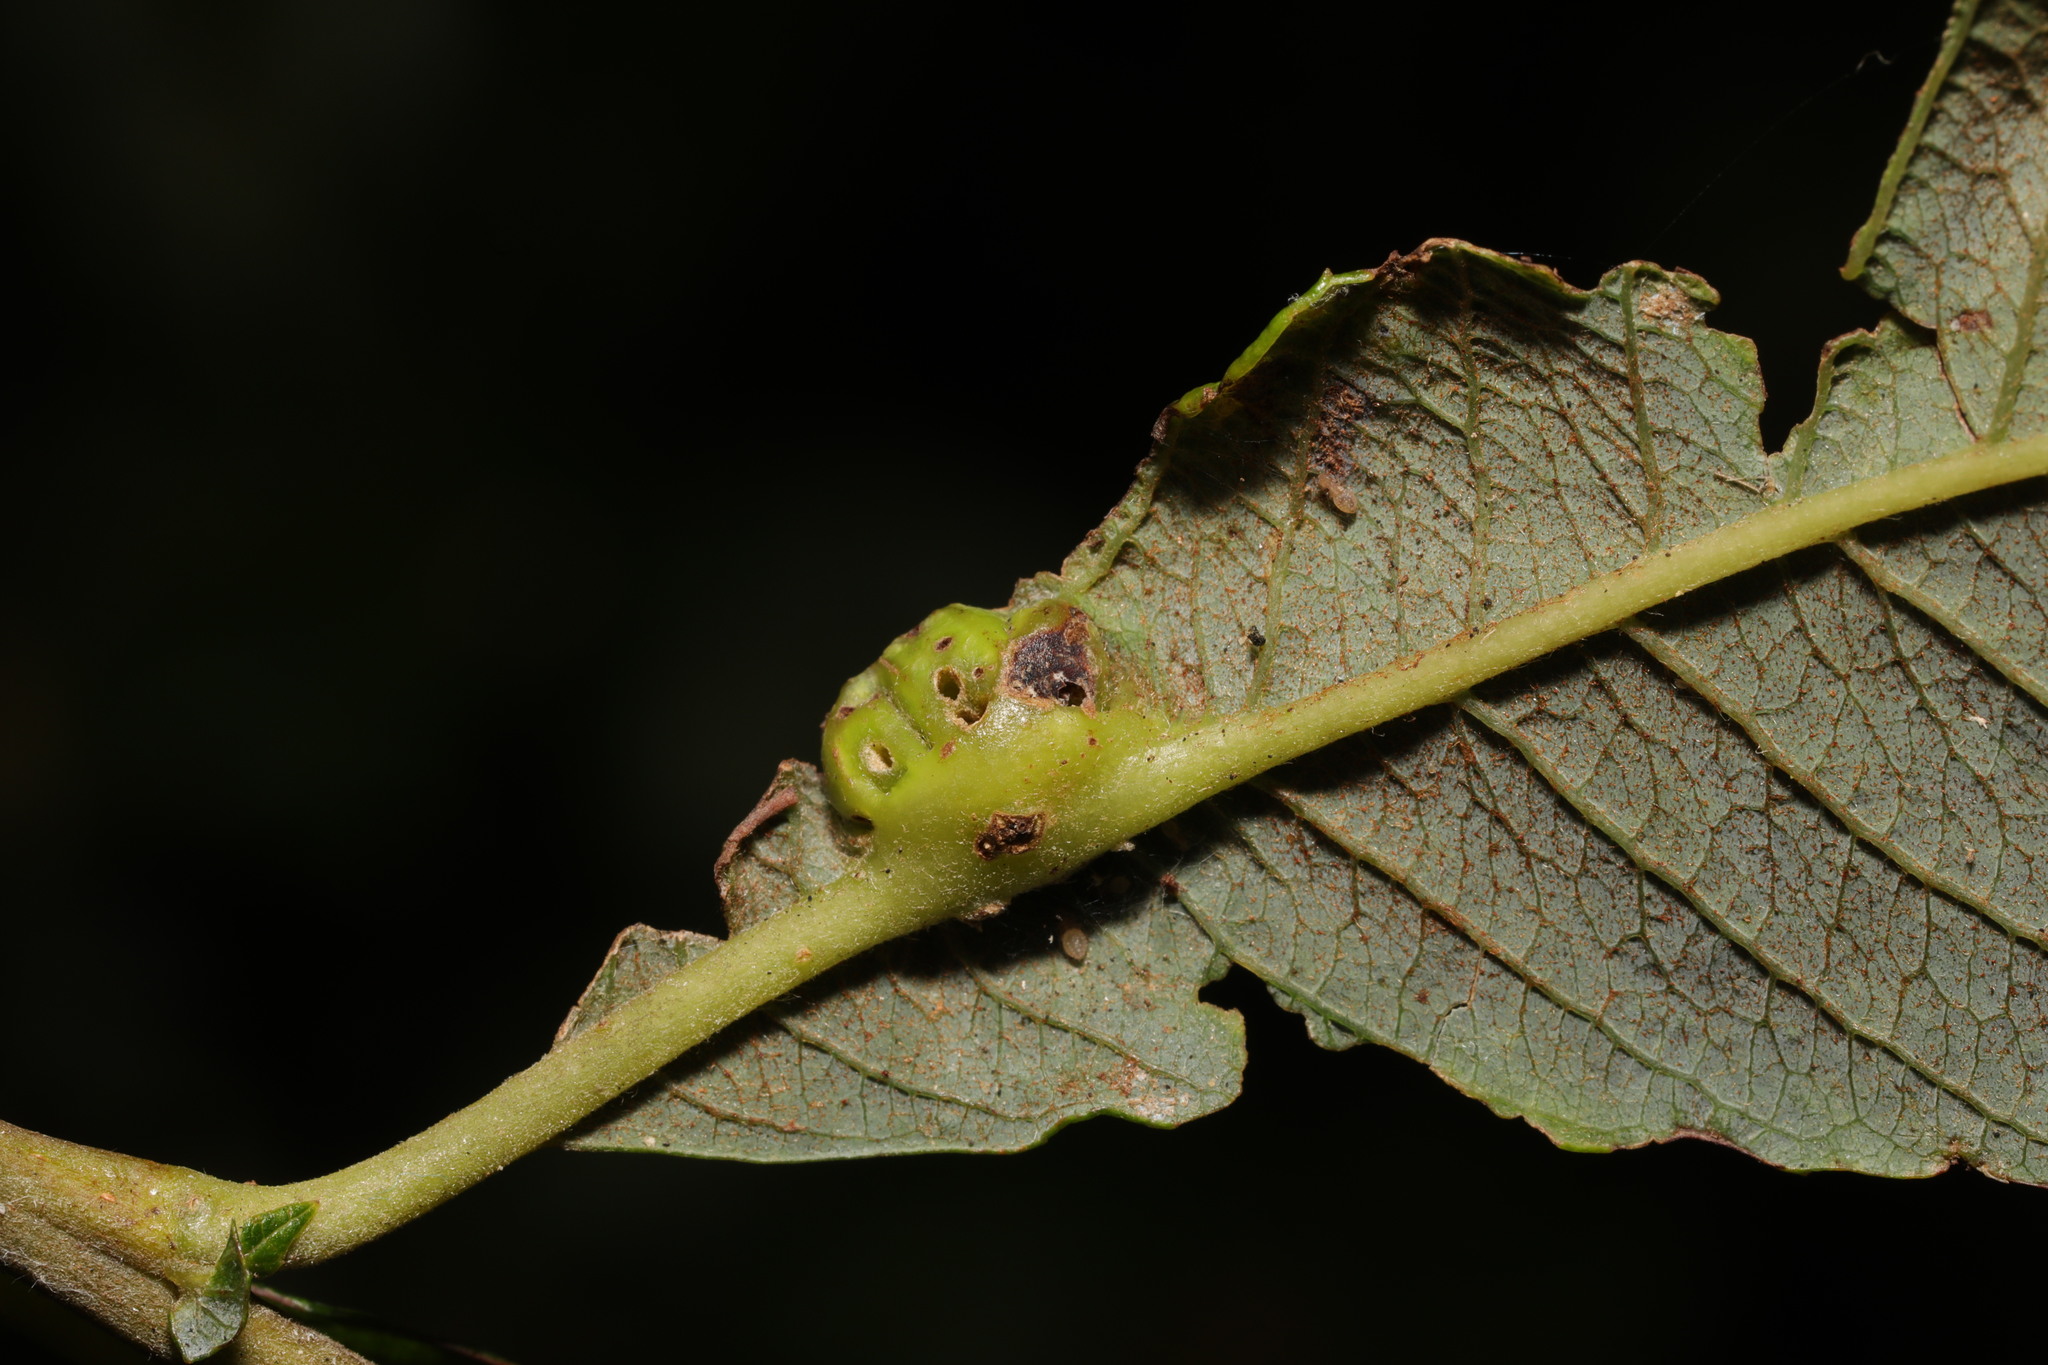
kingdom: Animalia
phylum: Arthropoda
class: Insecta
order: Diptera
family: Cecidomyiidae
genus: Iteomyia
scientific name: Iteomyia major
